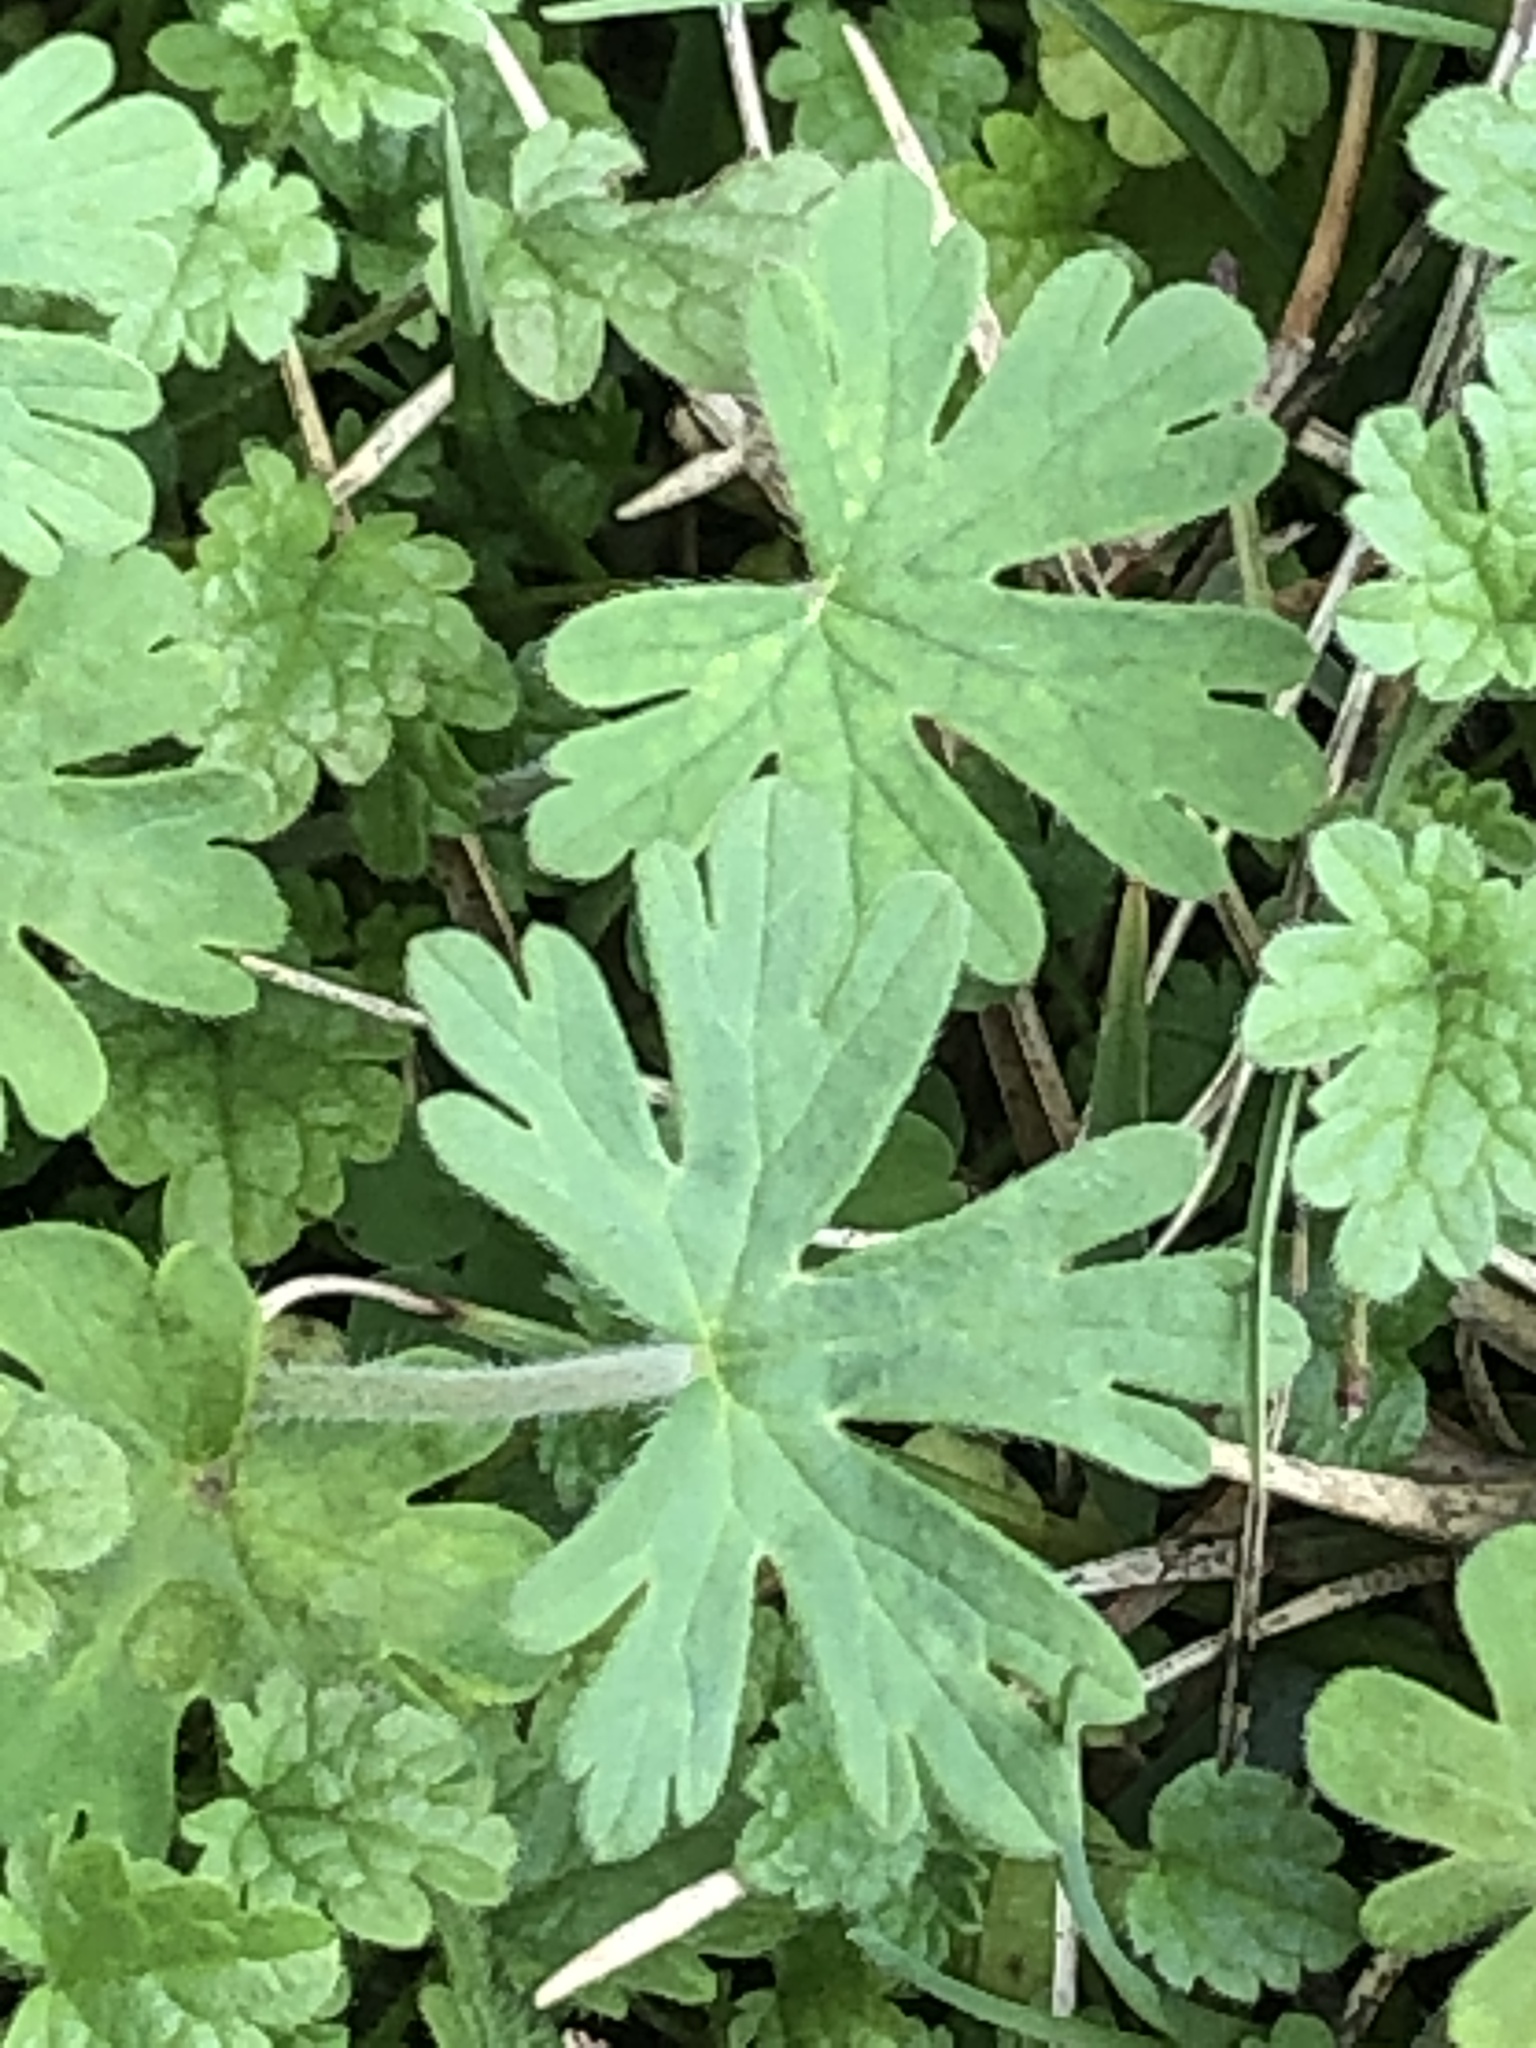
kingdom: Plantae
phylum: Tracheophyta
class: Magnoliopsida
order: Geraniales
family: Geraniaceae
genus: Geranium
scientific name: Geranium carolinianum
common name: Carolina crane's-bill
